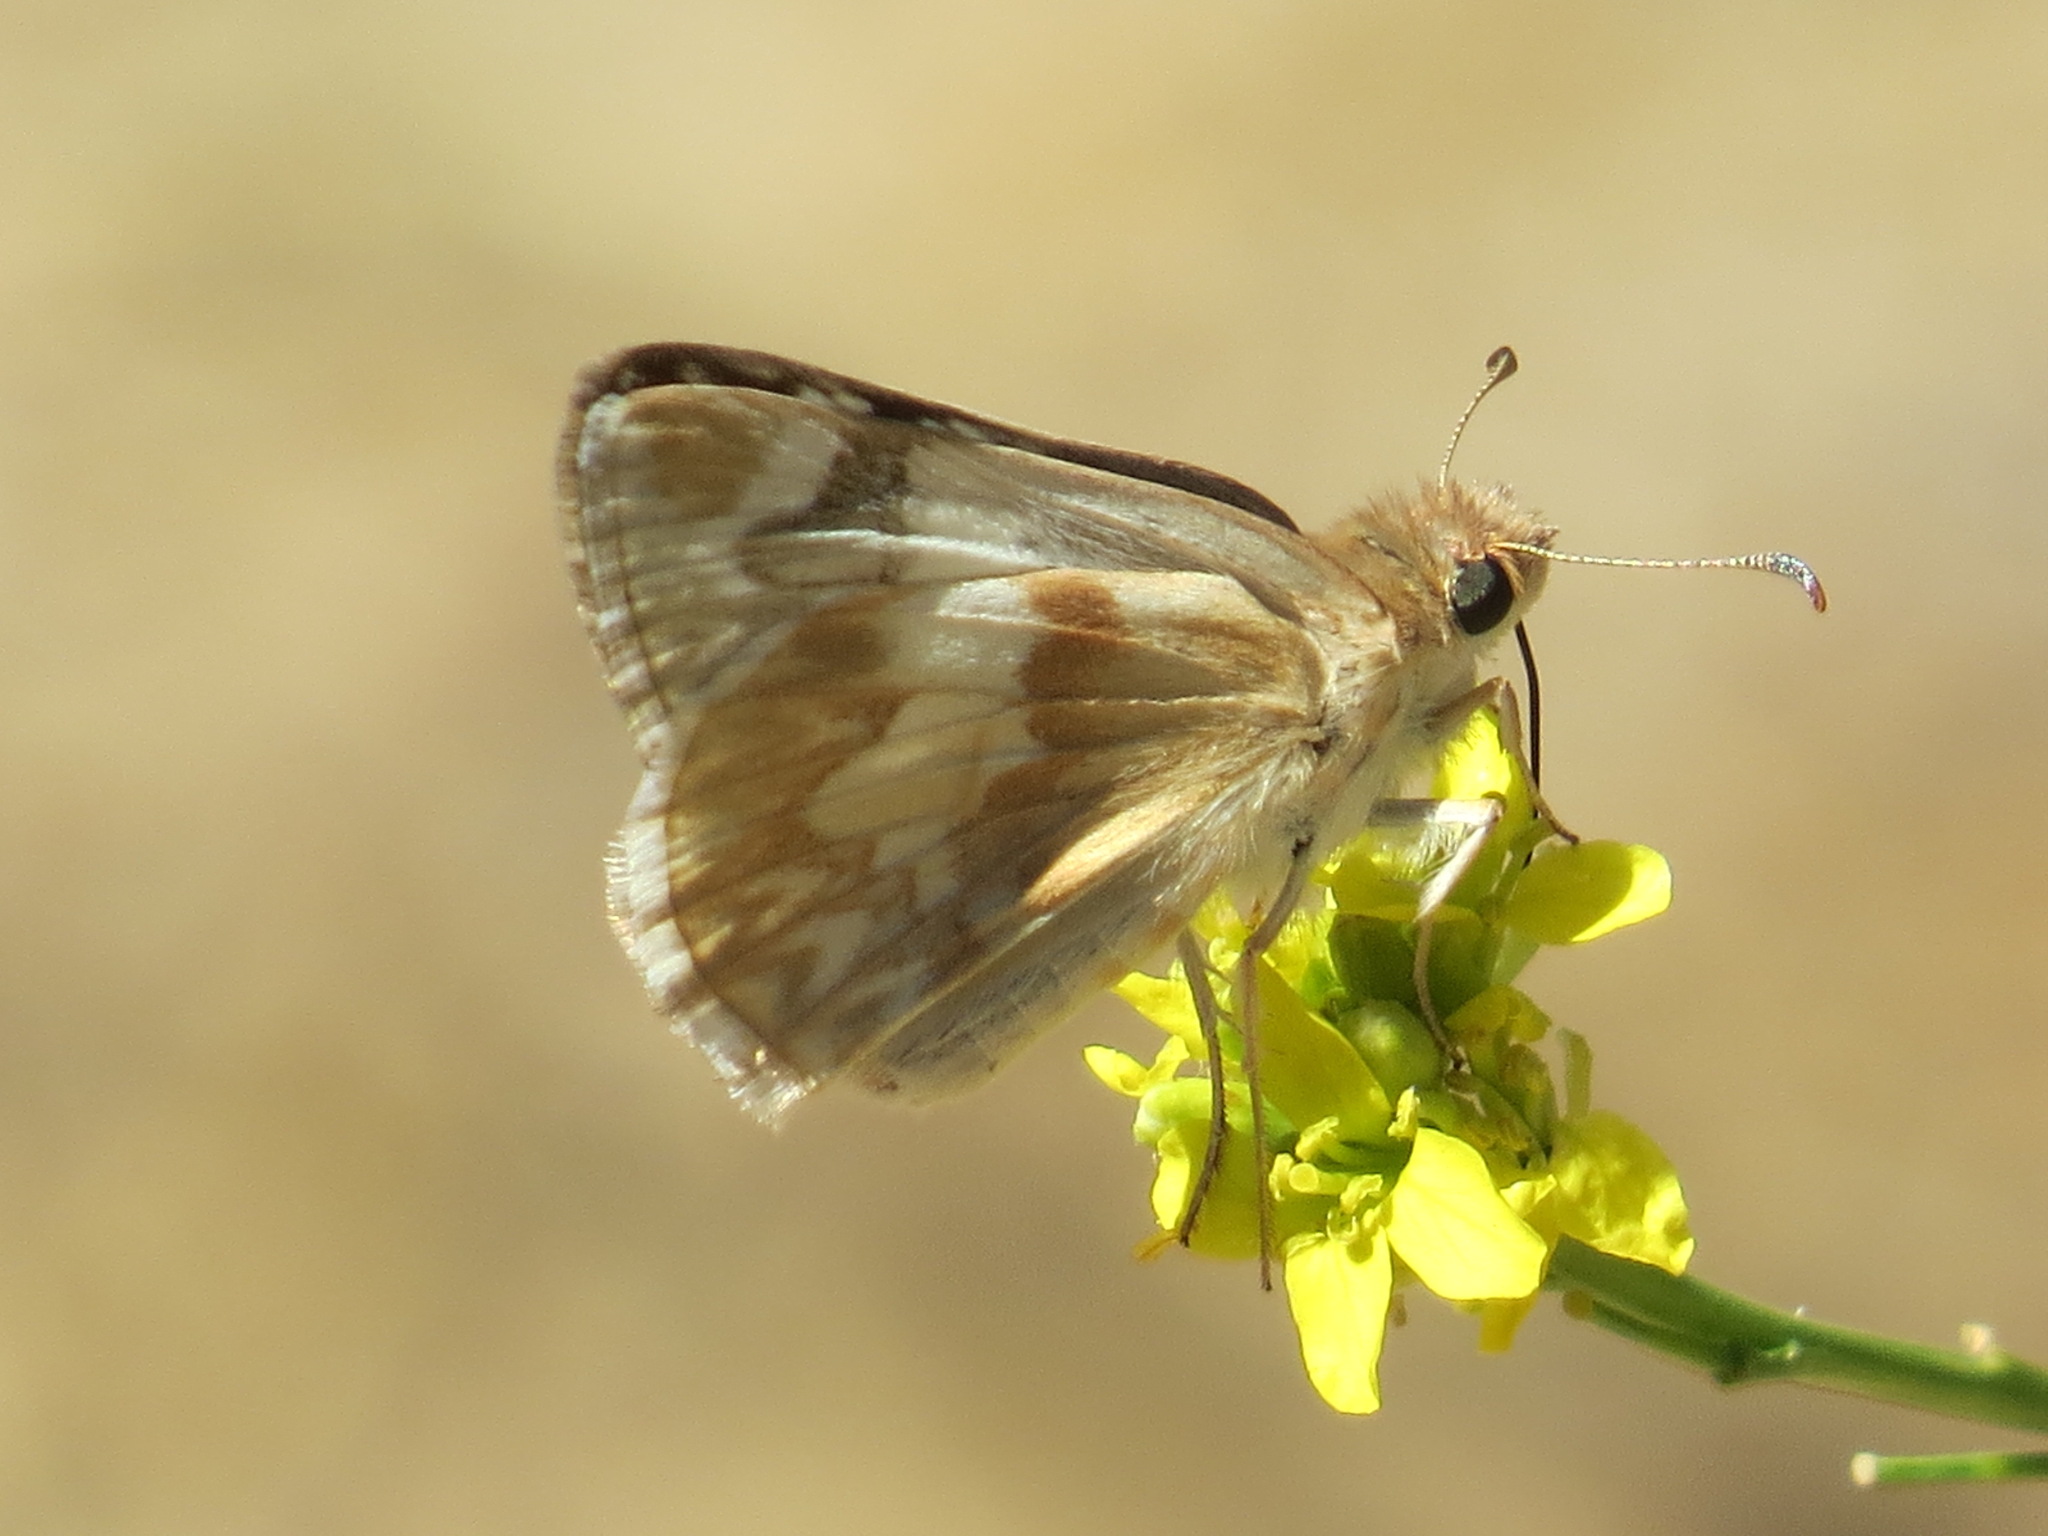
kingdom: Animalia
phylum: Arthropoda
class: Insecta
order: Lepidoptera
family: Hesperiidae
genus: Heliopetes
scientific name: Heliopetes ericetorum
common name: Northern white-skipper
